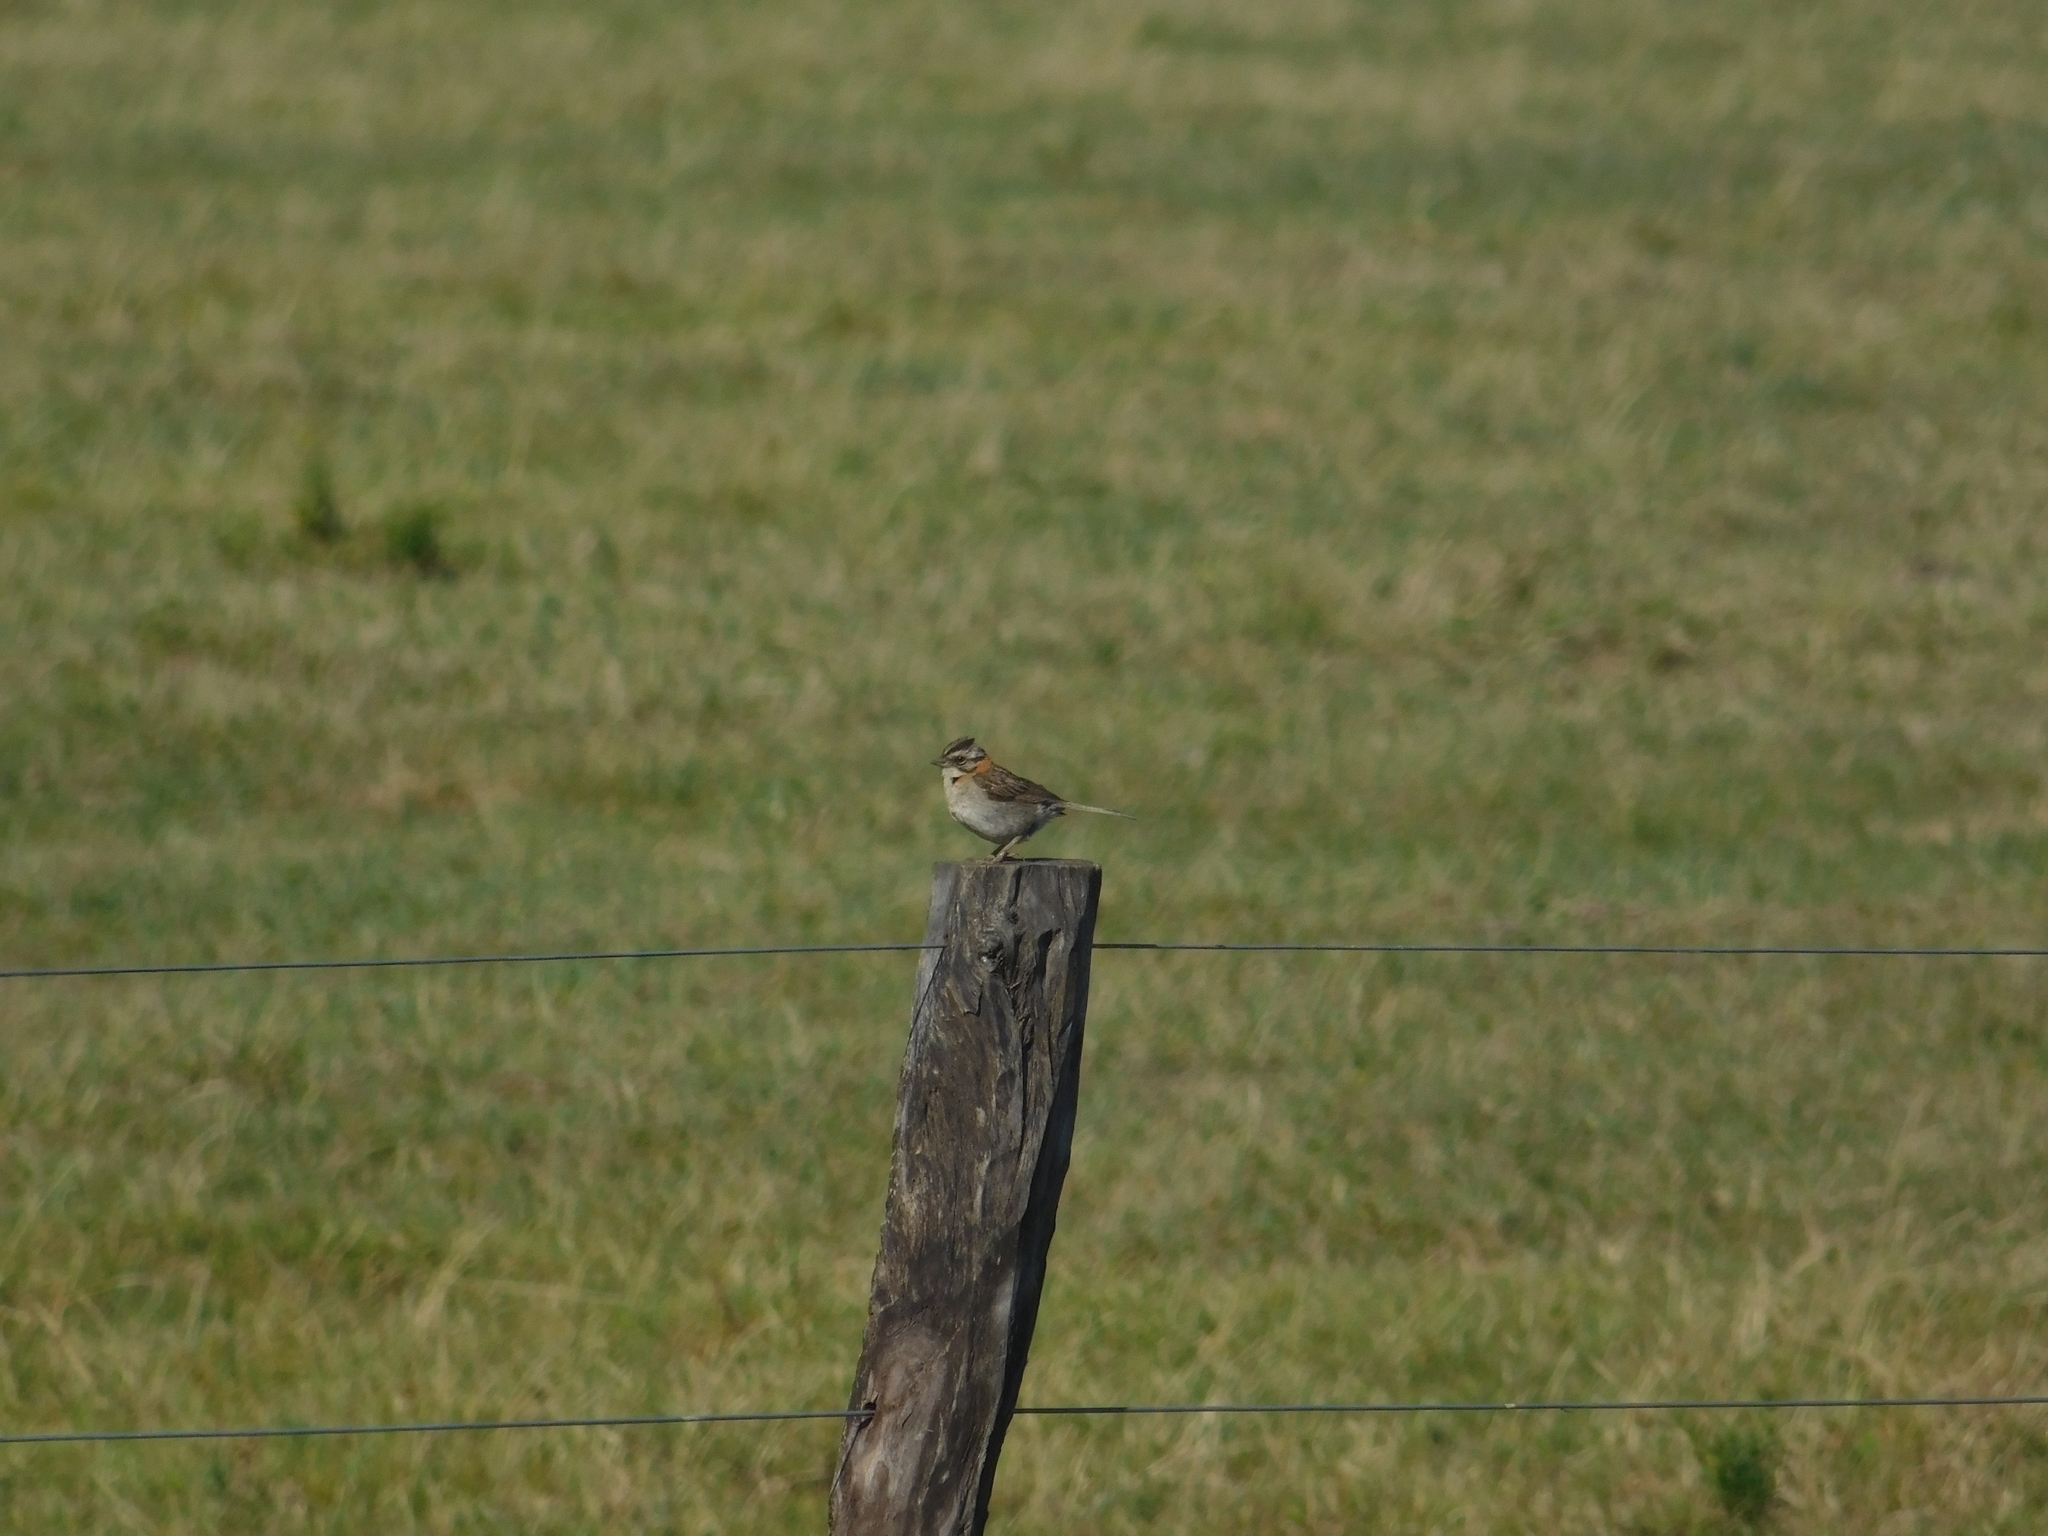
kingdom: Animalia
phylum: Chordata
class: Aves
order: Passeriformes
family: Passerellidae
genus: Zonotrichia
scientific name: Zonotrichia capensis
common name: Rufous-collared sparrow
